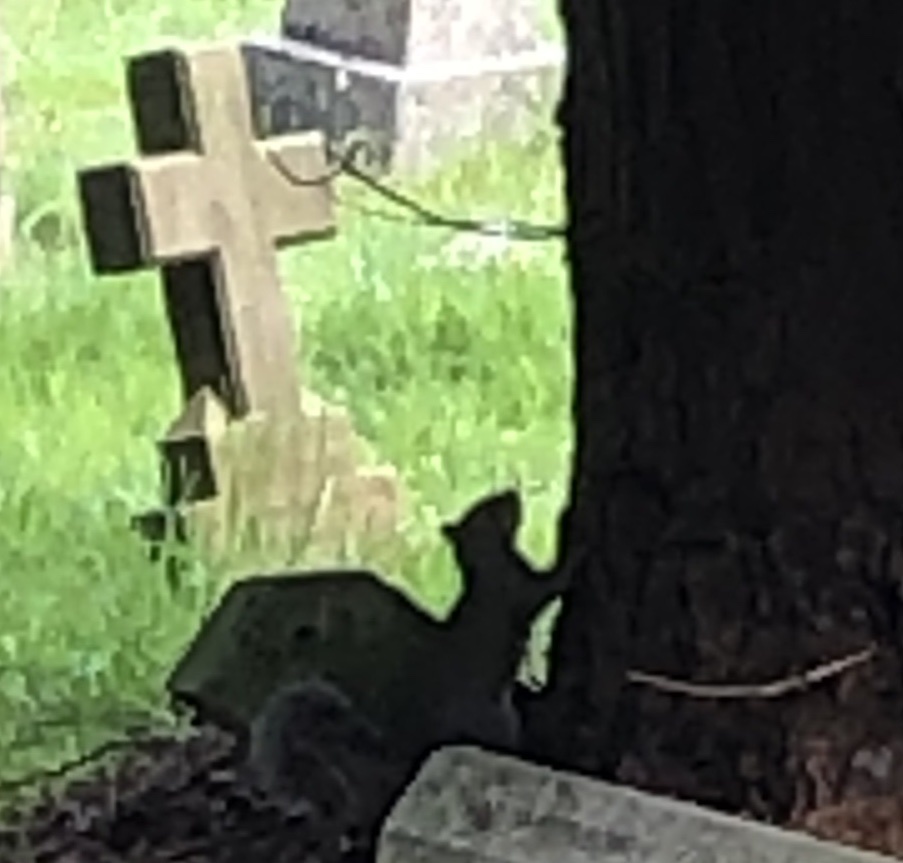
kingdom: Animalia
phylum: Chordata
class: Mammalia
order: Rodentia
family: Sciuridae
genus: Sciurus
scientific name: Sciurus carolinensis
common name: Eastern gray squirrel
